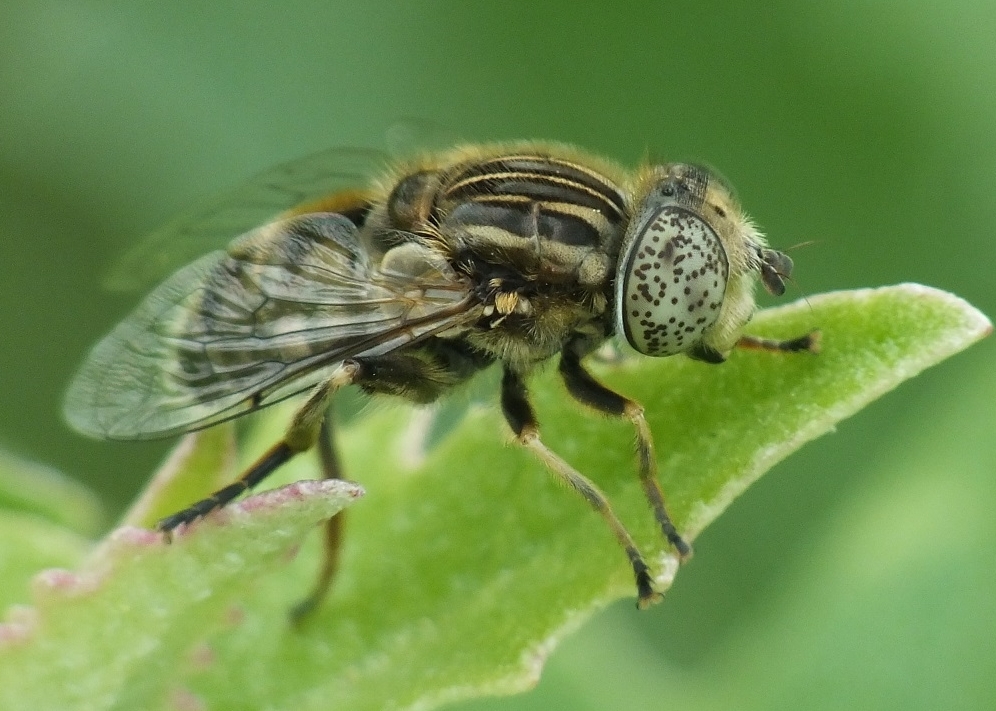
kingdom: Animalia
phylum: Arthropoda
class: Insecta
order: Diptera
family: Syrphidae
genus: Eristalinus
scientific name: Eristalinus sepulchralis
